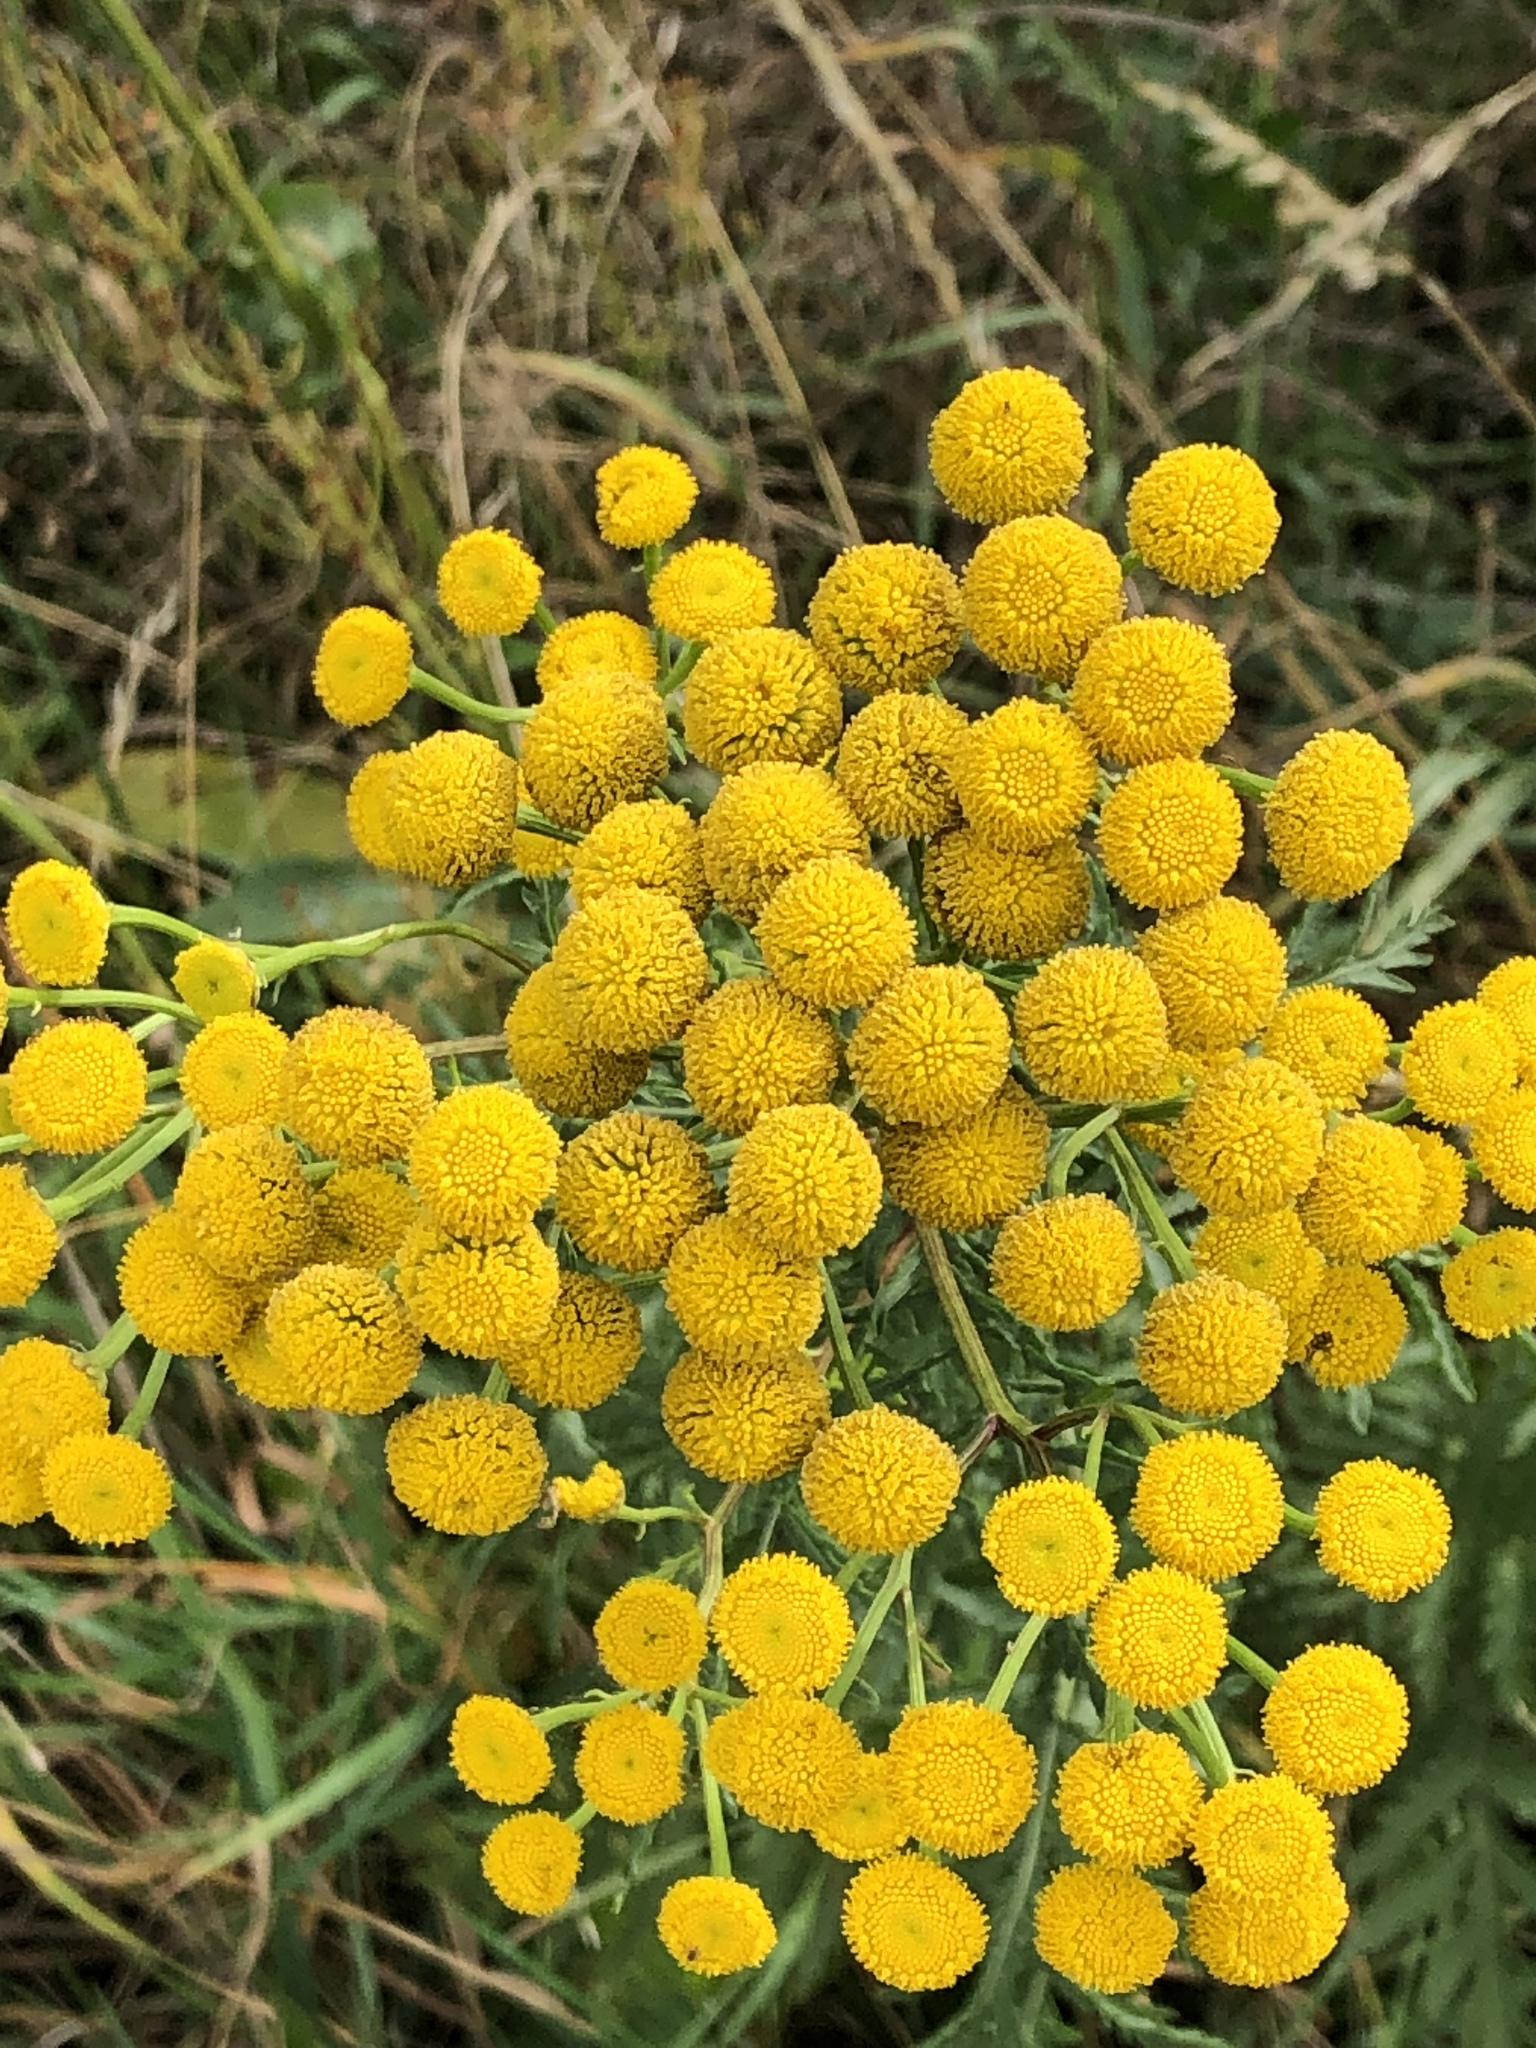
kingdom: Plantae
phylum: Tracheophyta
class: Magnoliopsida
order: Asterales
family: Asteraceae
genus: Tanacetum
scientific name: Tanacetum vulgare
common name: Common tansy
